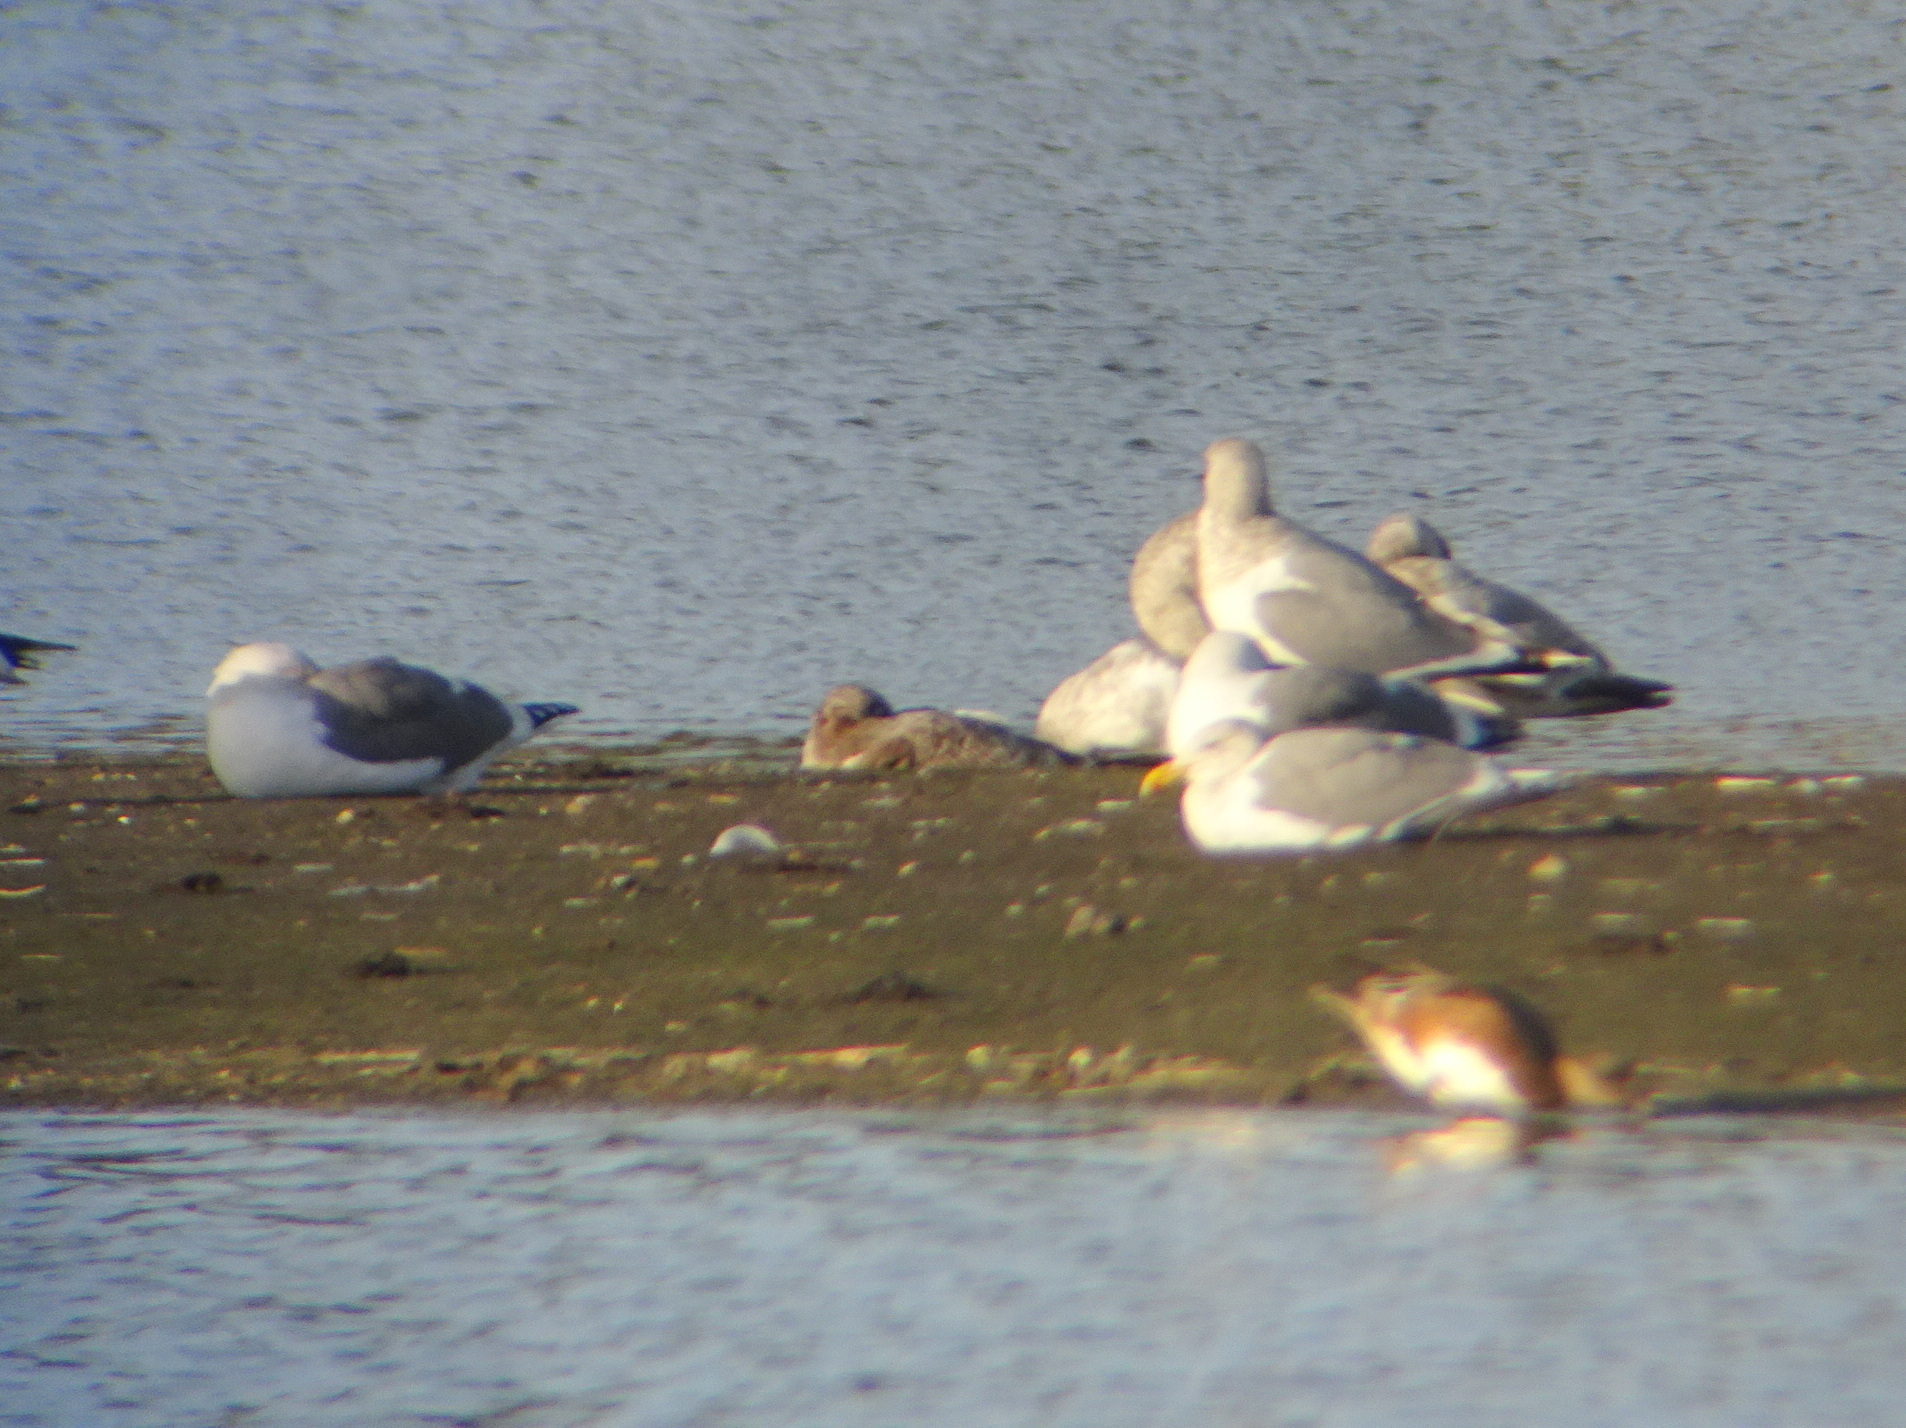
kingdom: Animalia
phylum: Chordata
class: Aves
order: Charadriiformes
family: Laridae
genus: Larus
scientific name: Larus occidentalis
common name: Western gull
